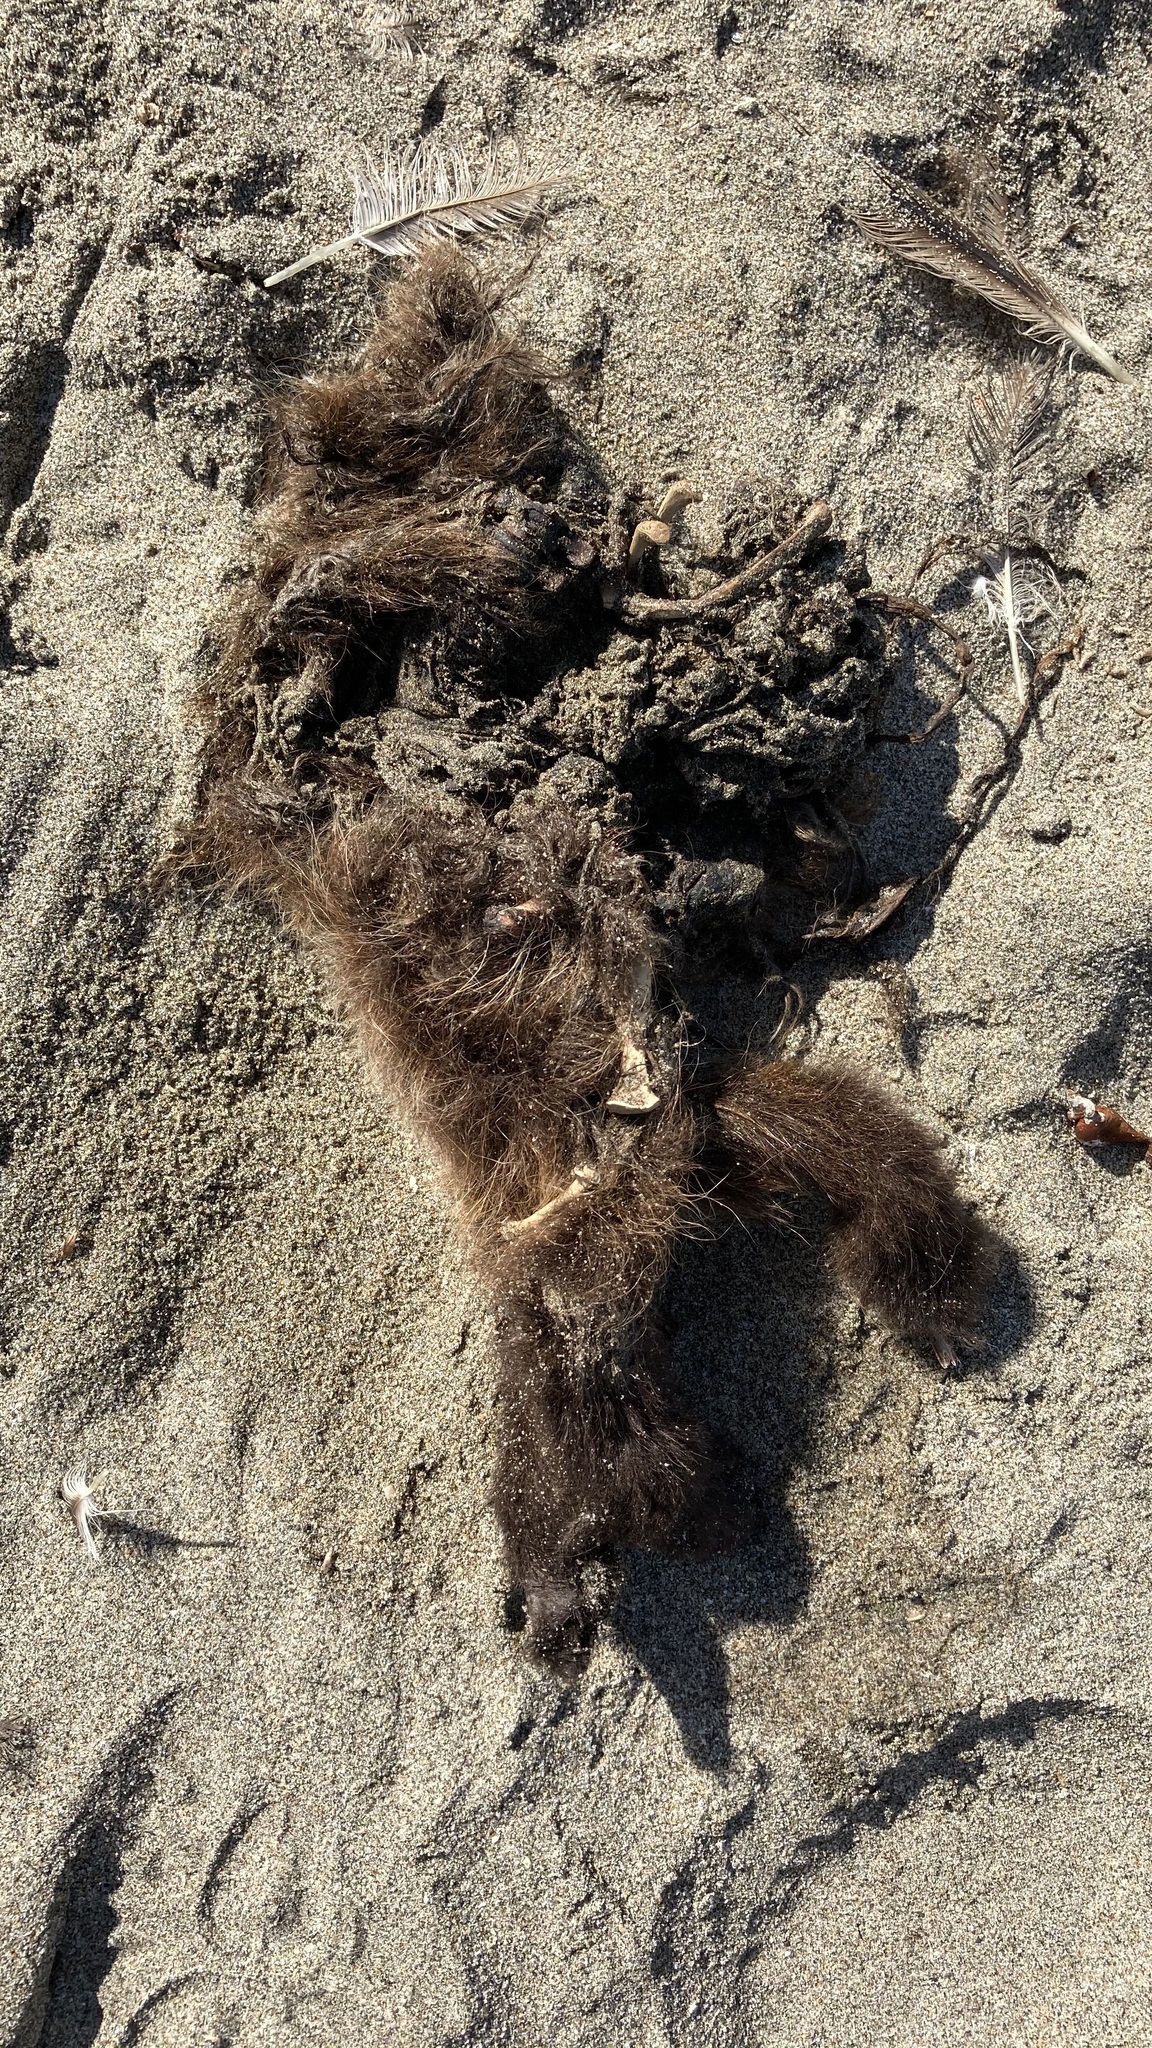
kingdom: Animalia
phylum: Chordata
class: Mammalia
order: Carnivora
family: Mustelidae
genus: Enhydra
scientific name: Enhydra lutris
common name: Sea otter
